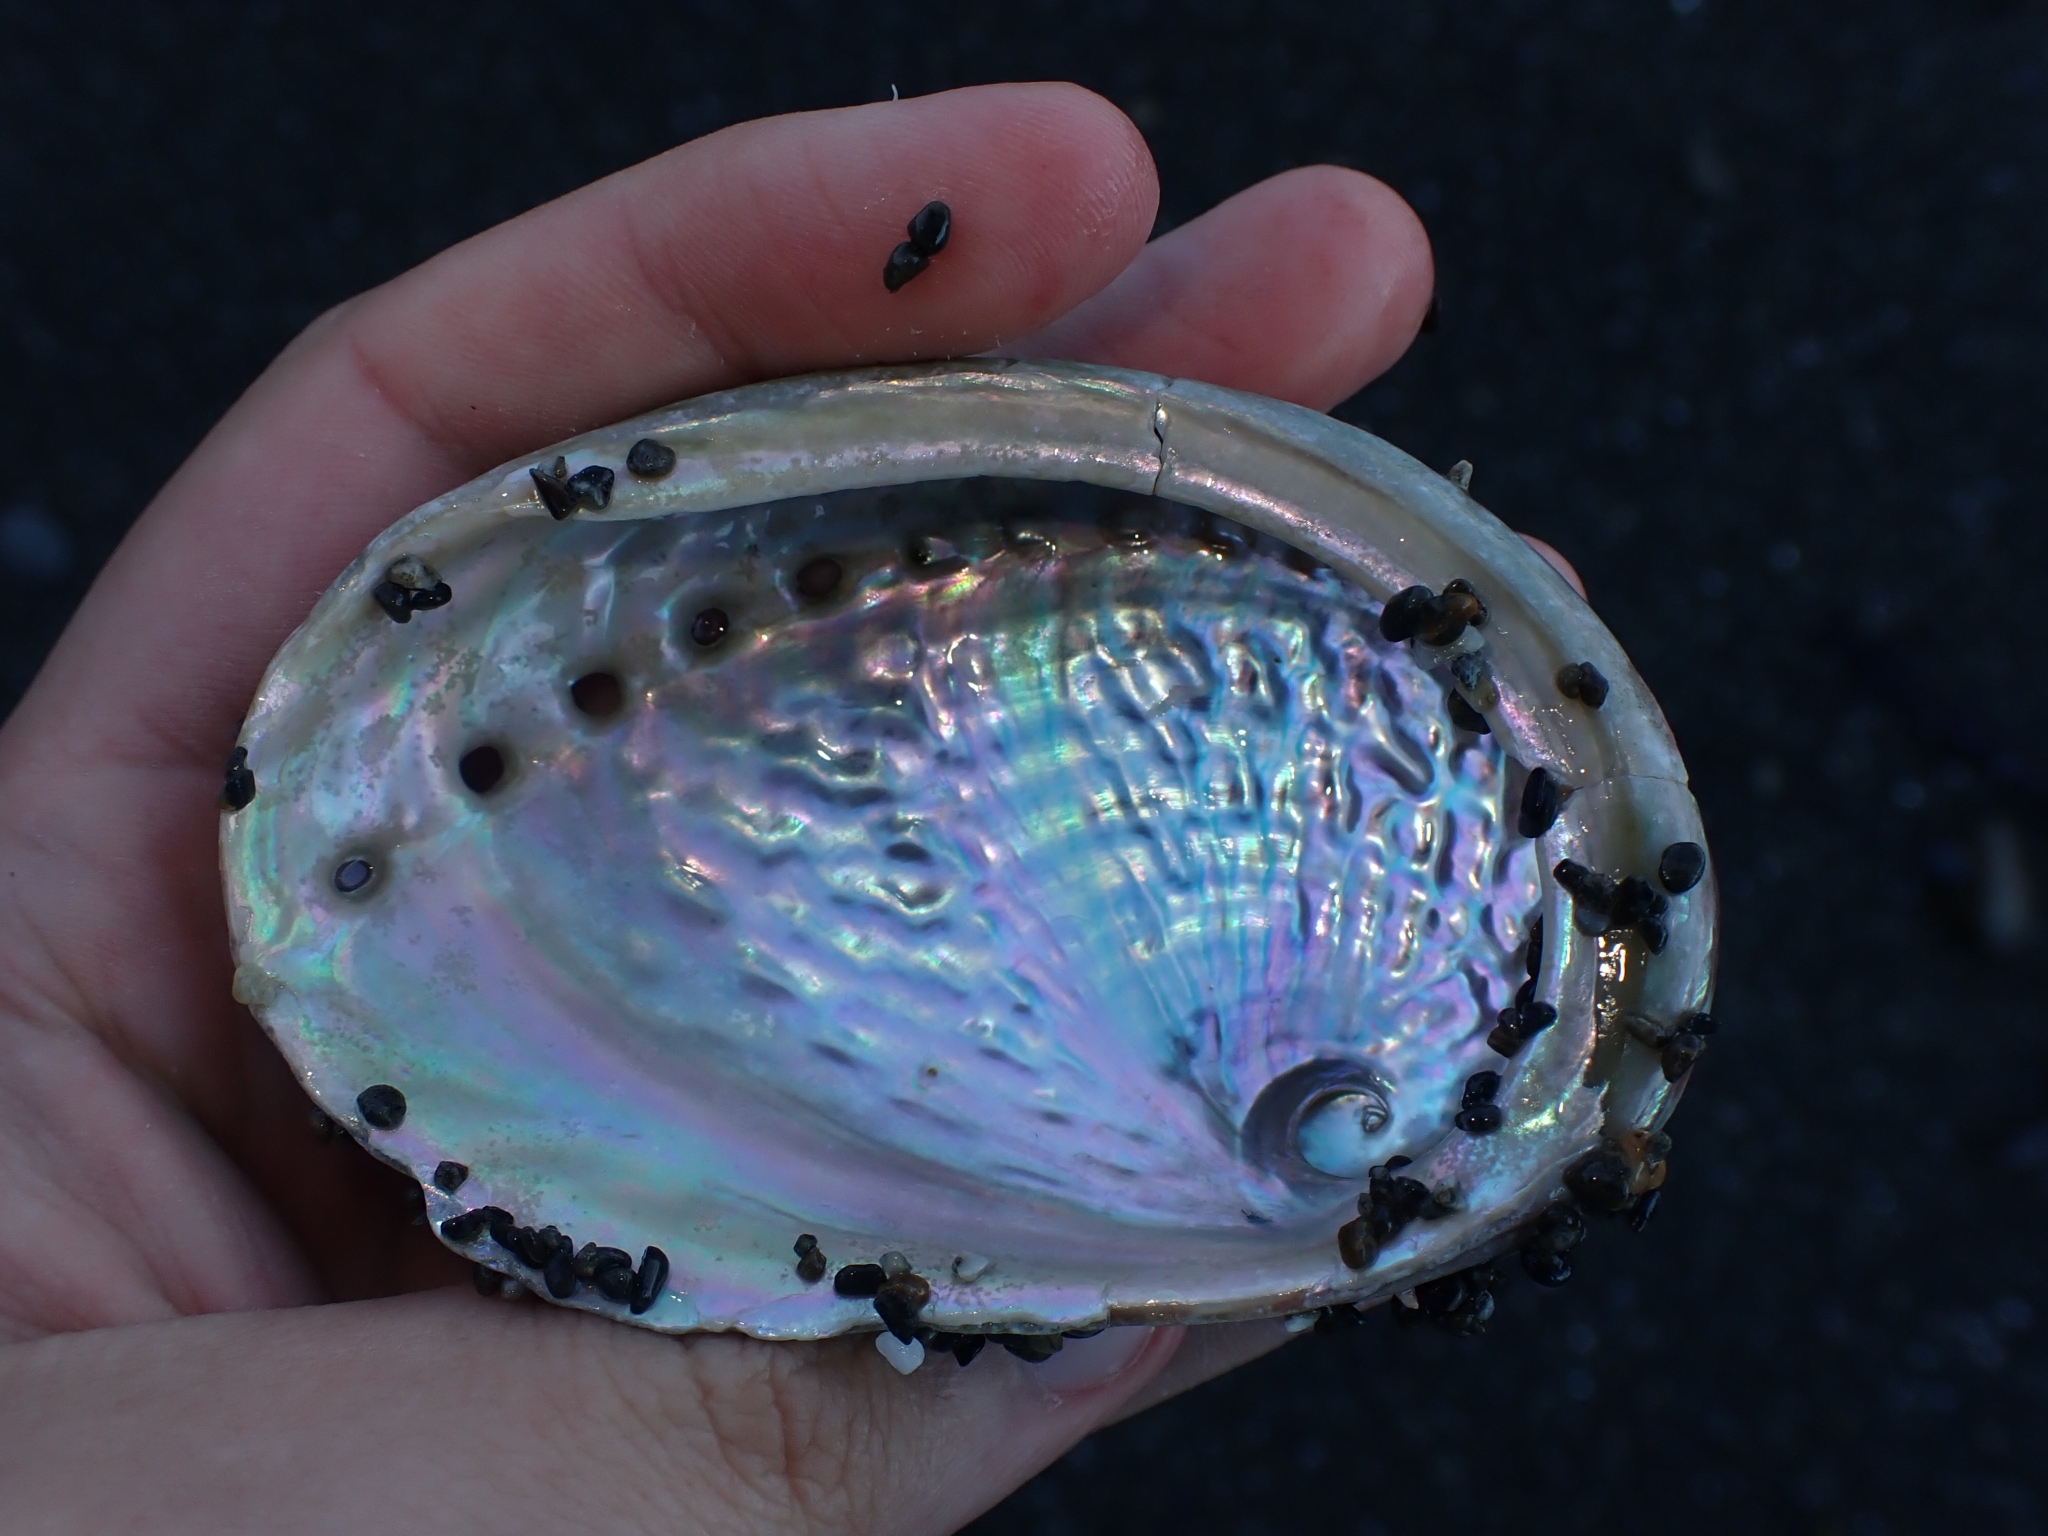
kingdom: Animalia
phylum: Mollusca
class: Gastropoda
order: Lepetellida
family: Haliotidae
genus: Haliotis
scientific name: Haliotis australis
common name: Silver abalone
